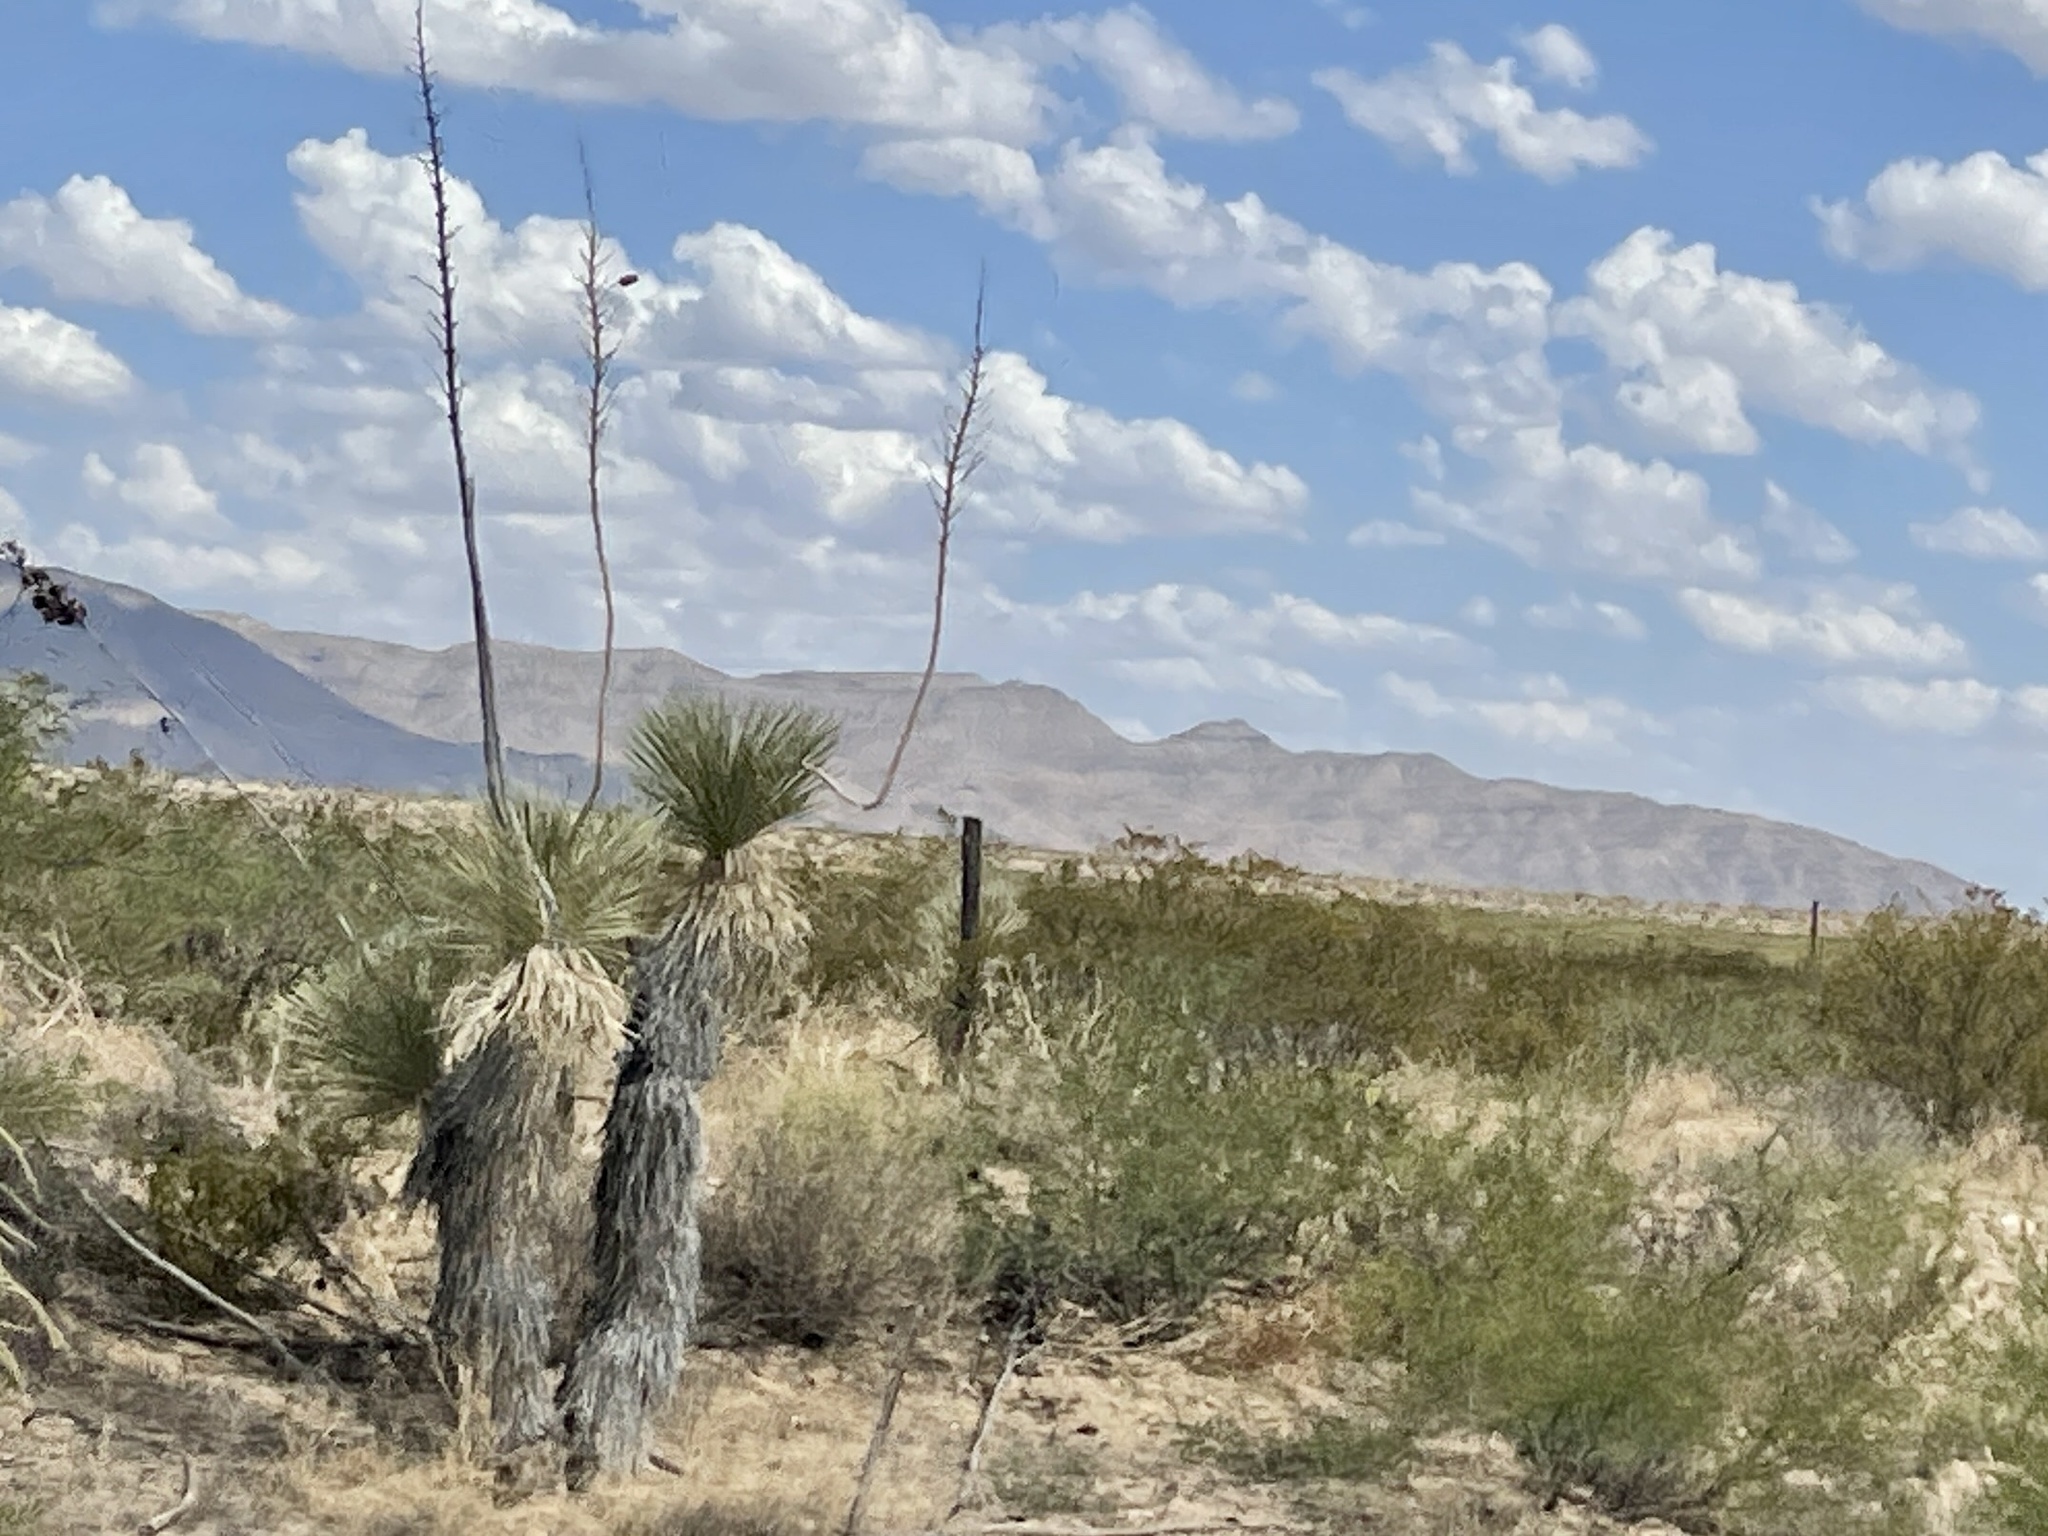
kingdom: Plantae
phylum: Tracheophyta
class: Liliopsida
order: Asparagales
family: Asparagaceae
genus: Yucca
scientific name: Yucca elata
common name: Palmella
